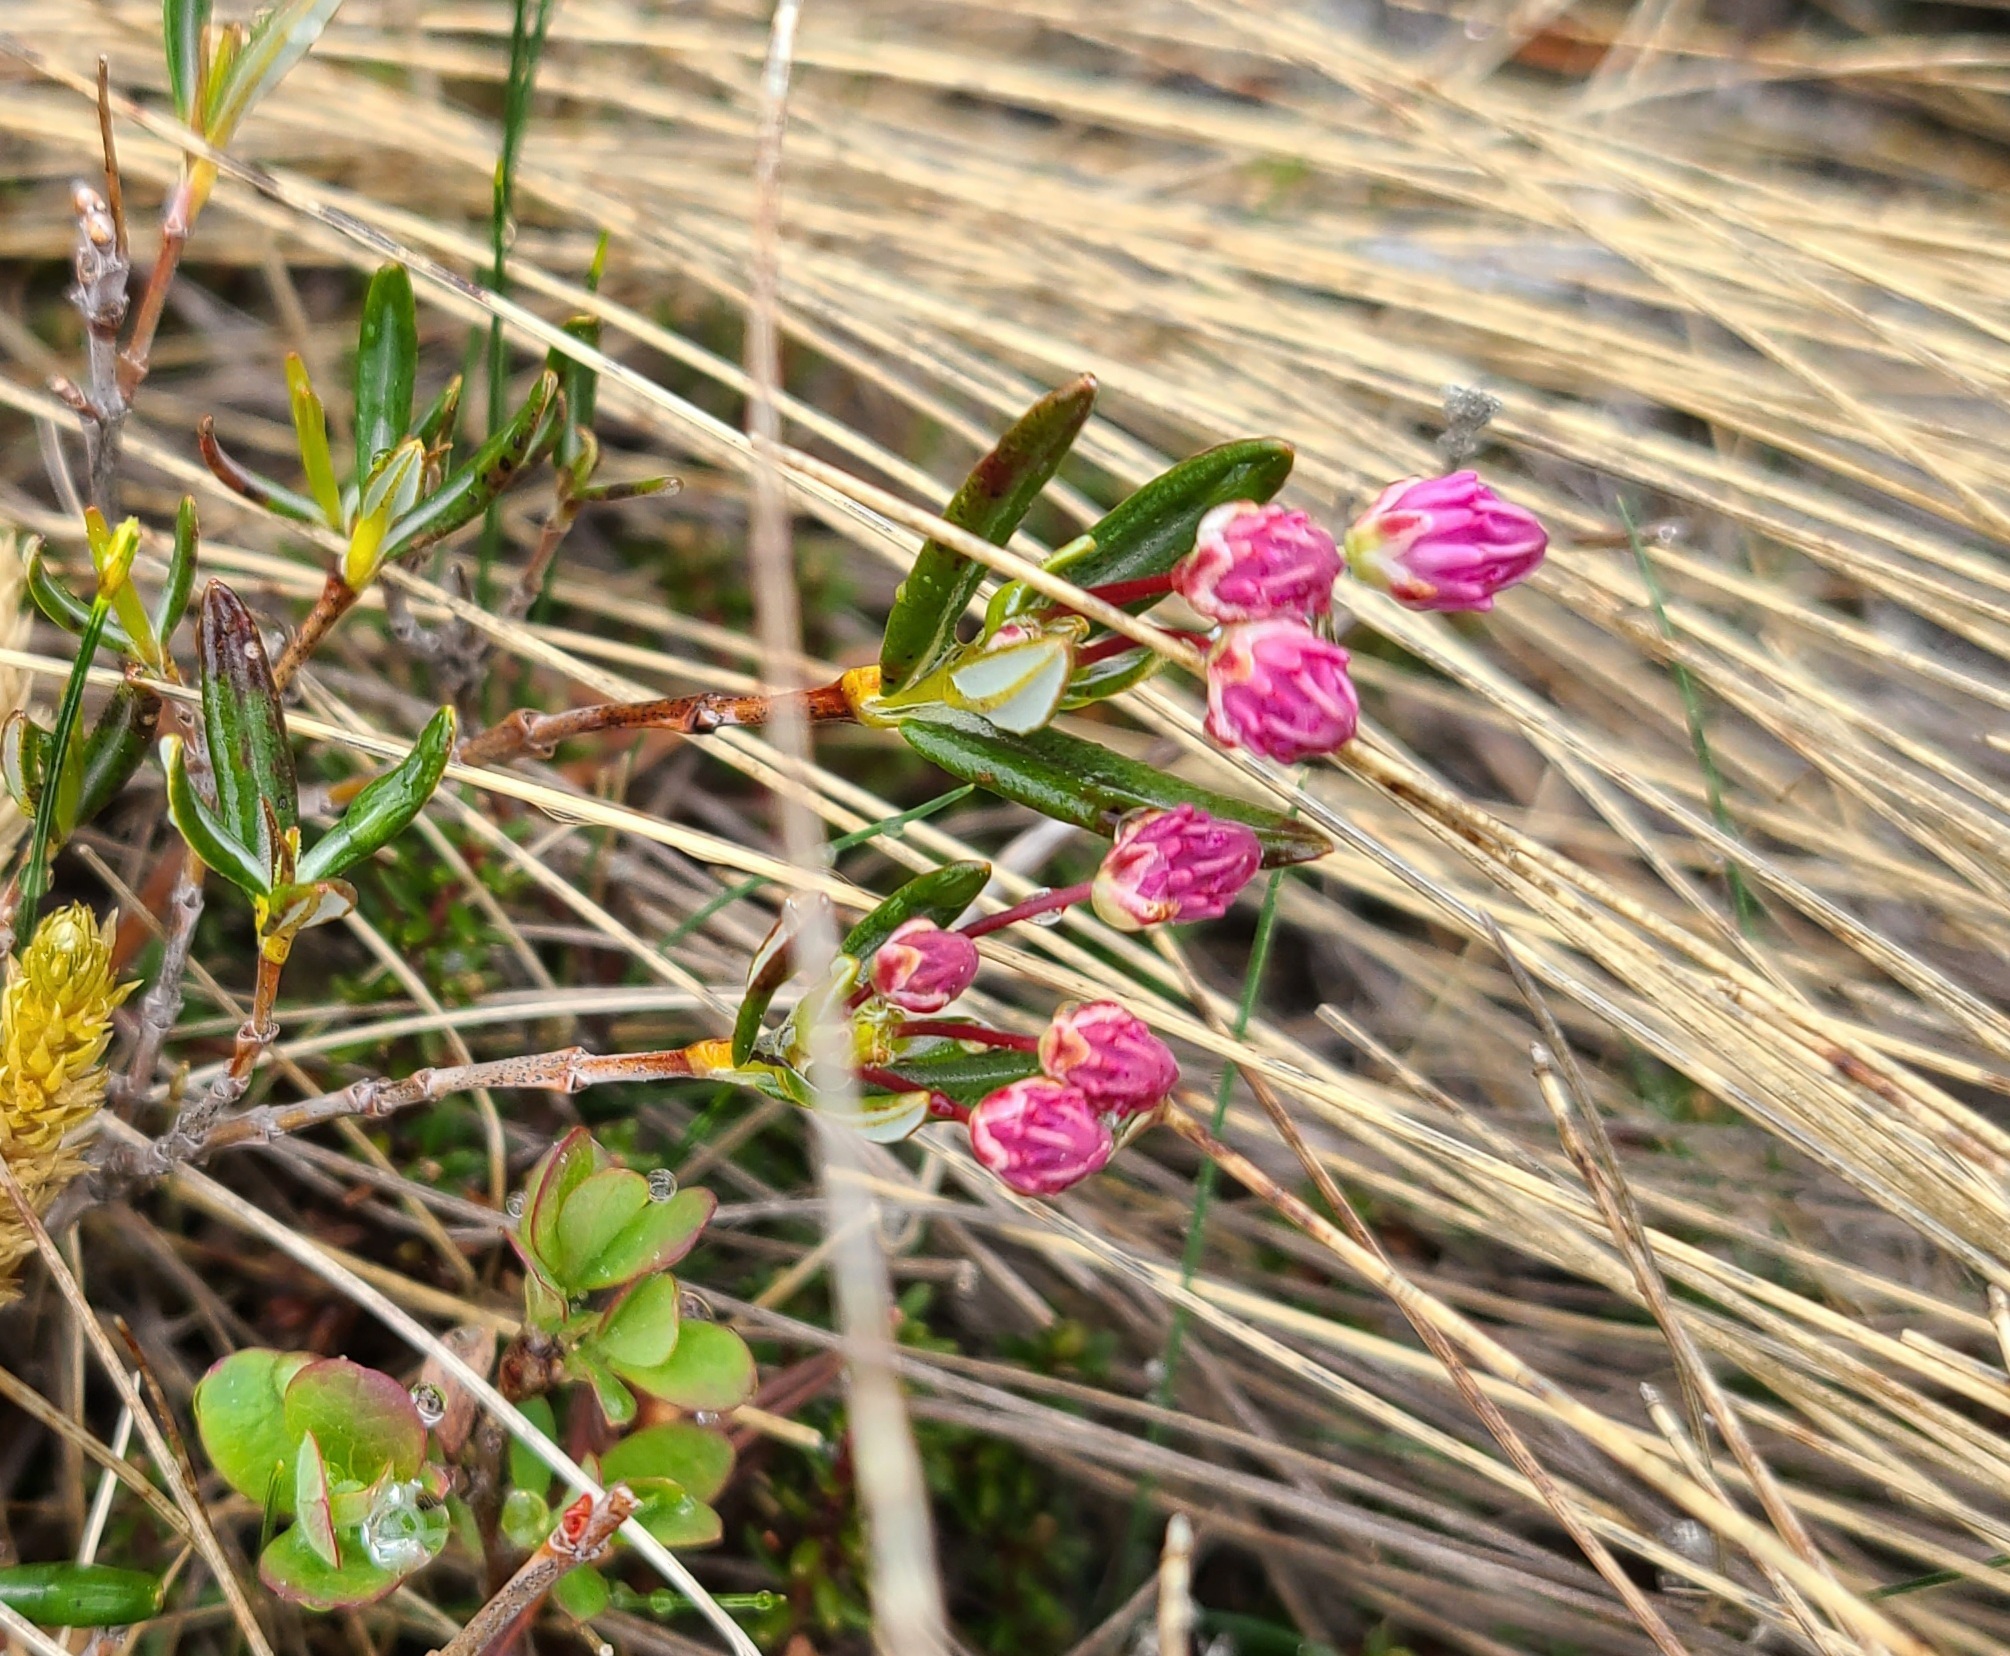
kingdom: Plantae
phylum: Tracheophyta
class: Magnoliopsida
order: Ericales
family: Ericaceae
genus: Kalmia
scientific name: Kalmia angustifolia
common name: Sheep-laurel
